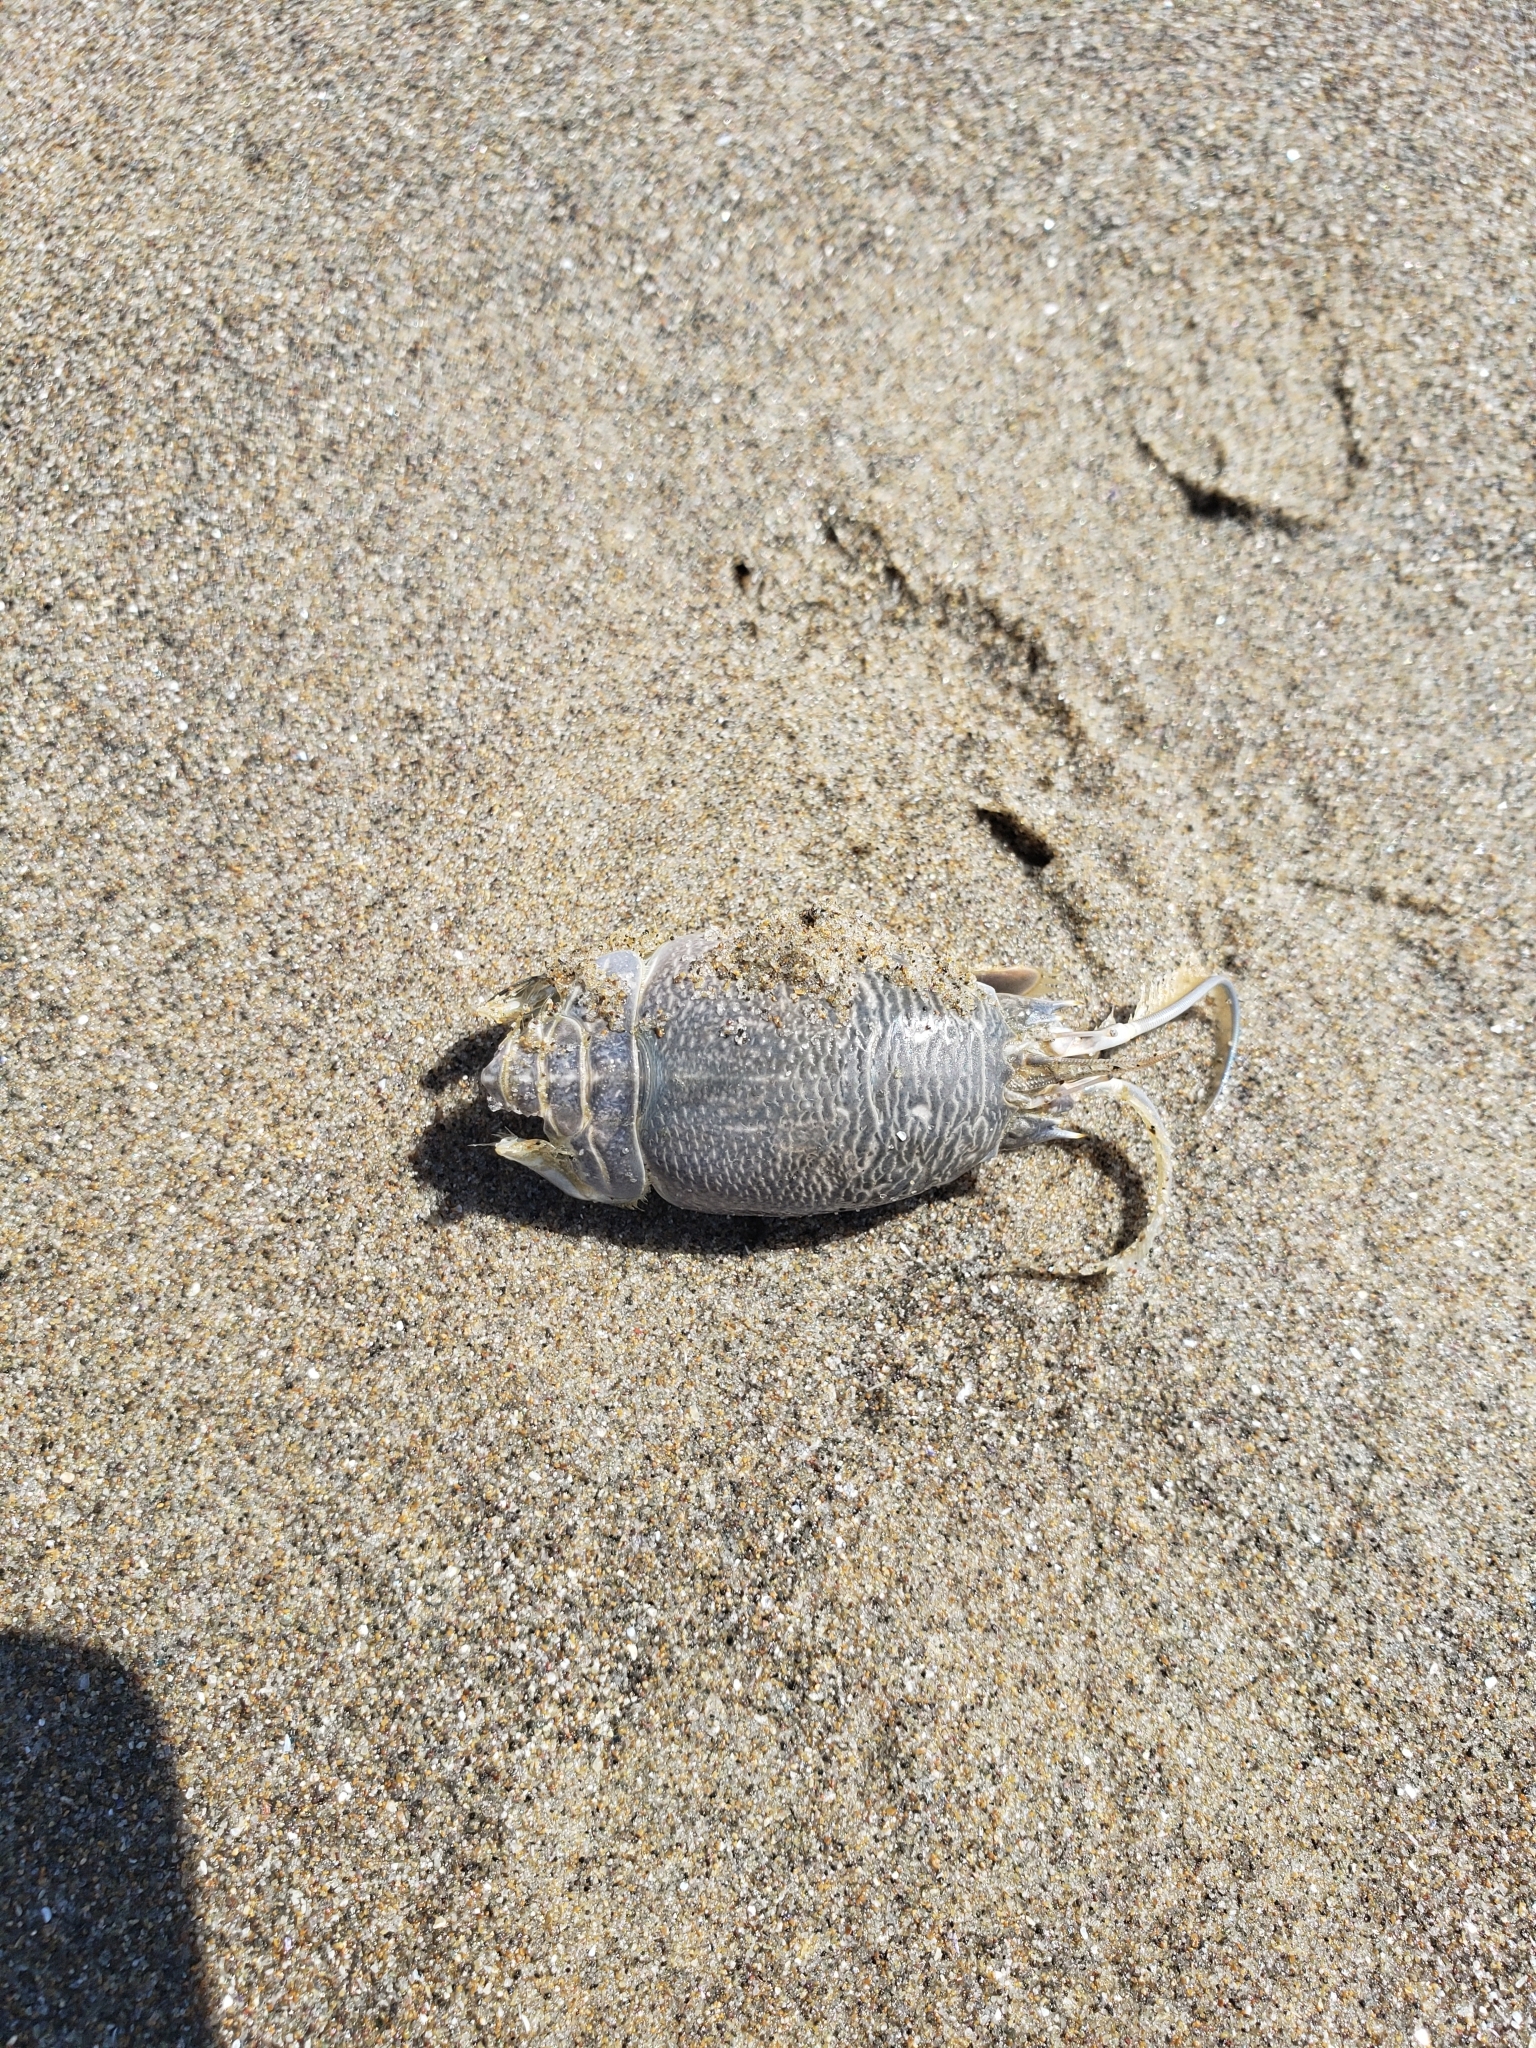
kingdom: Animalia
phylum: Arthropoda
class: Malacostraca
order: Decapoda
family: Hippidae
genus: Emerita
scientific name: Emerita analoga
